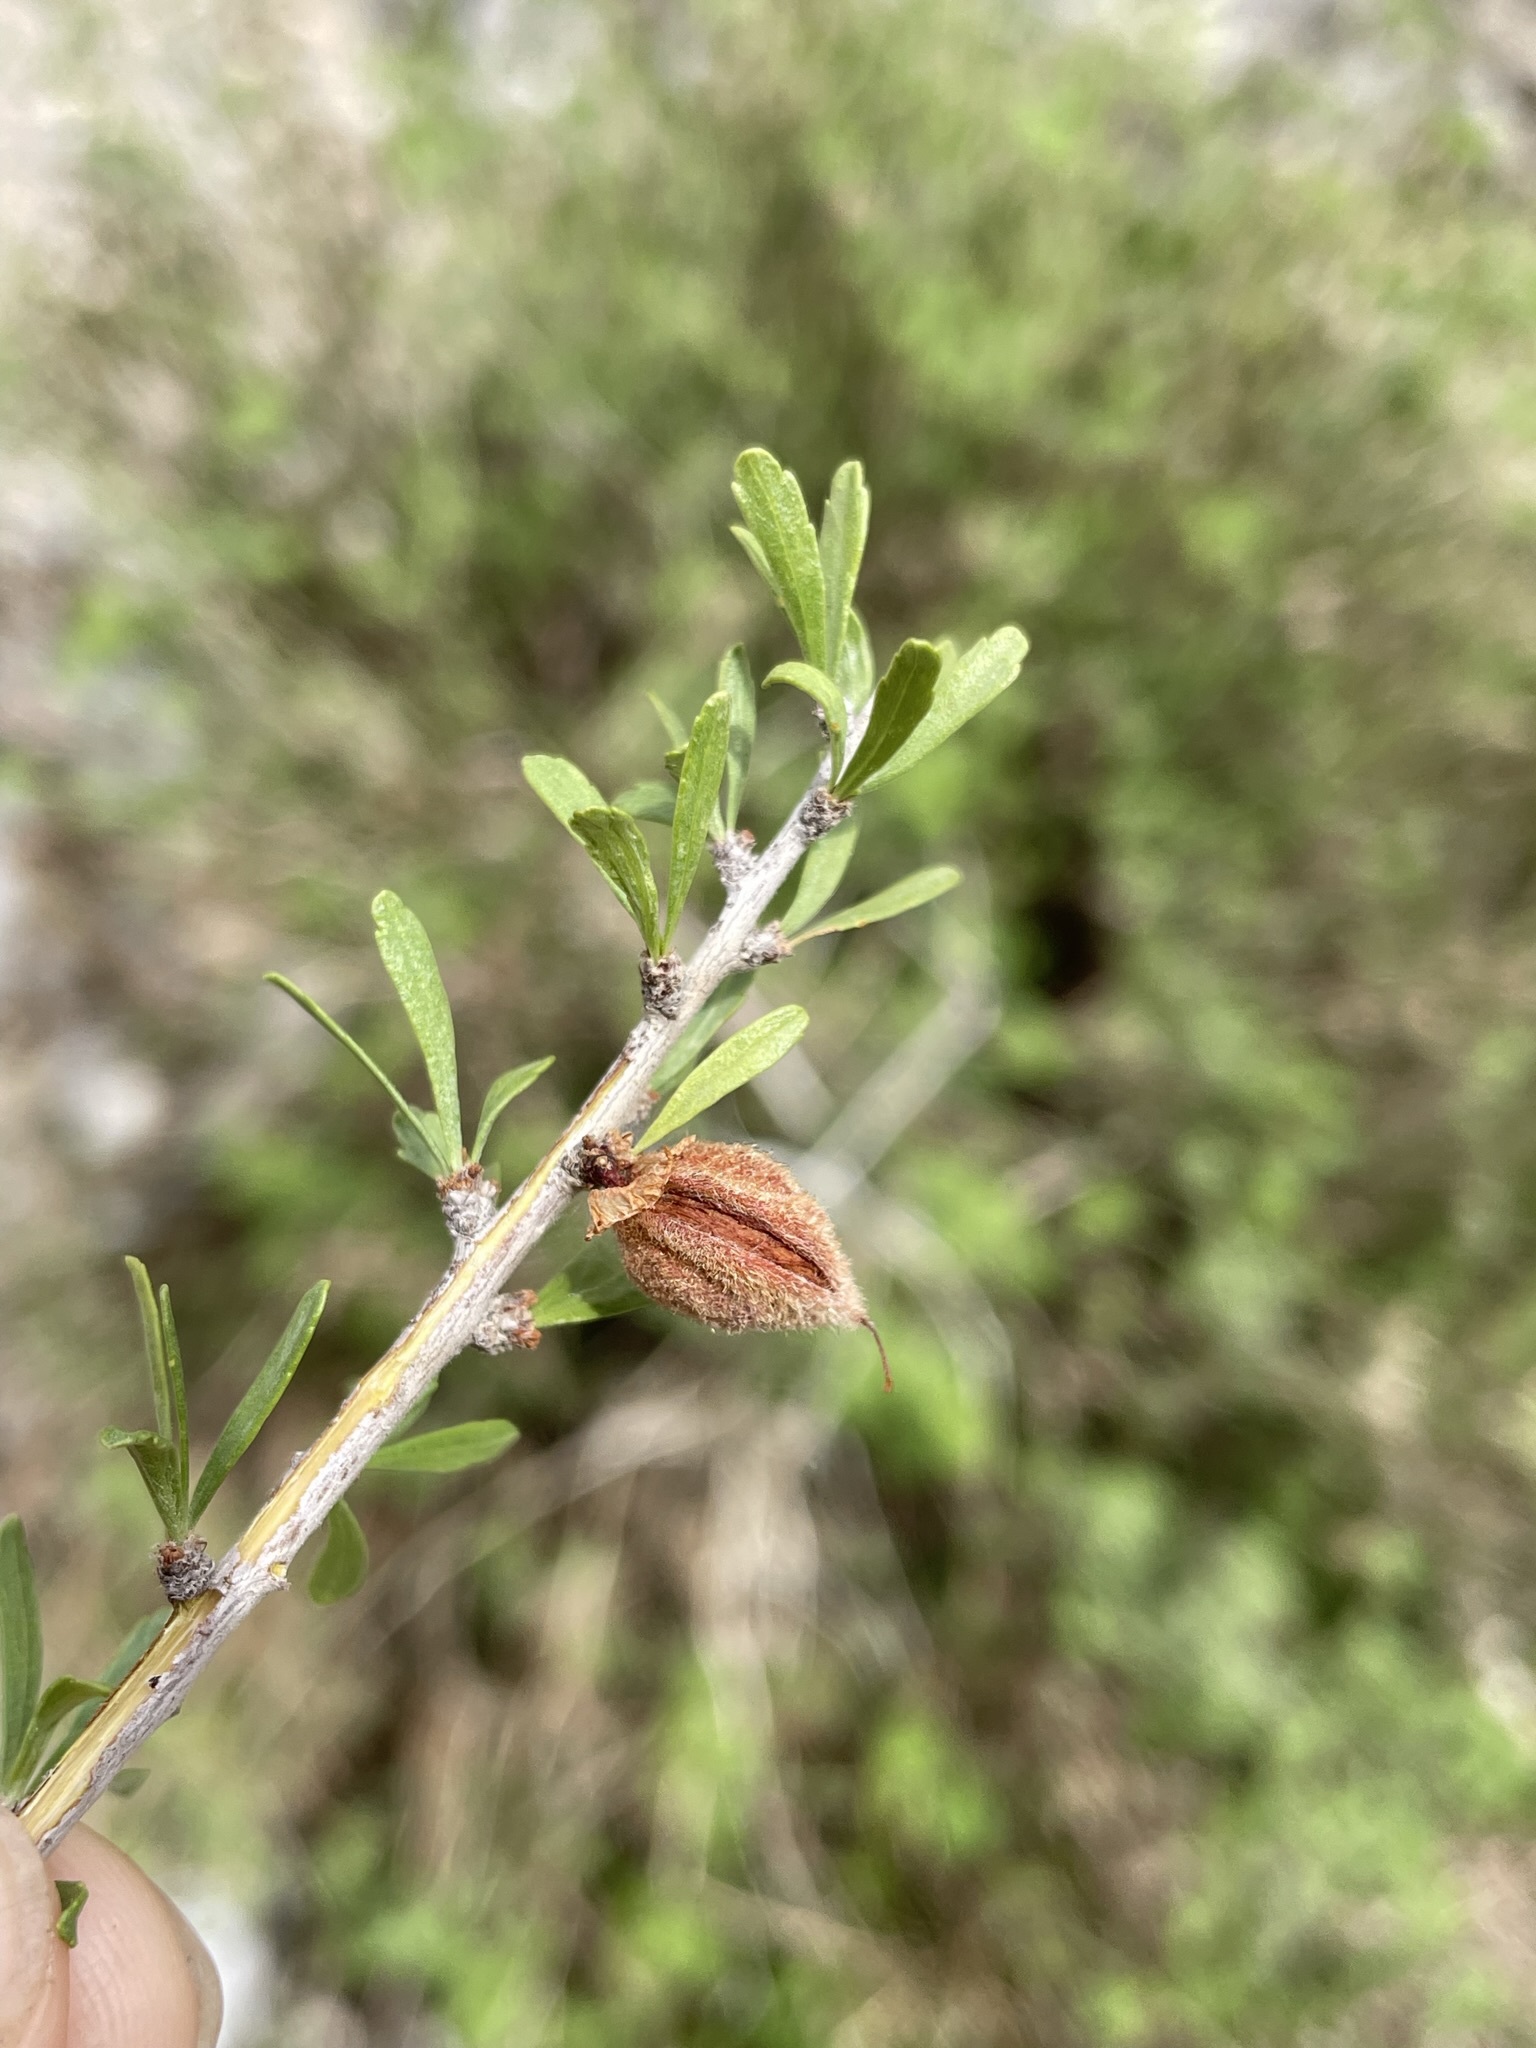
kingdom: Plantae
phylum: Tracheophyta
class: Magnoliopsida
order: Rosales
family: Rosaceae
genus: Prunus
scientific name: Prunus fasciculata
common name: Desert almond
